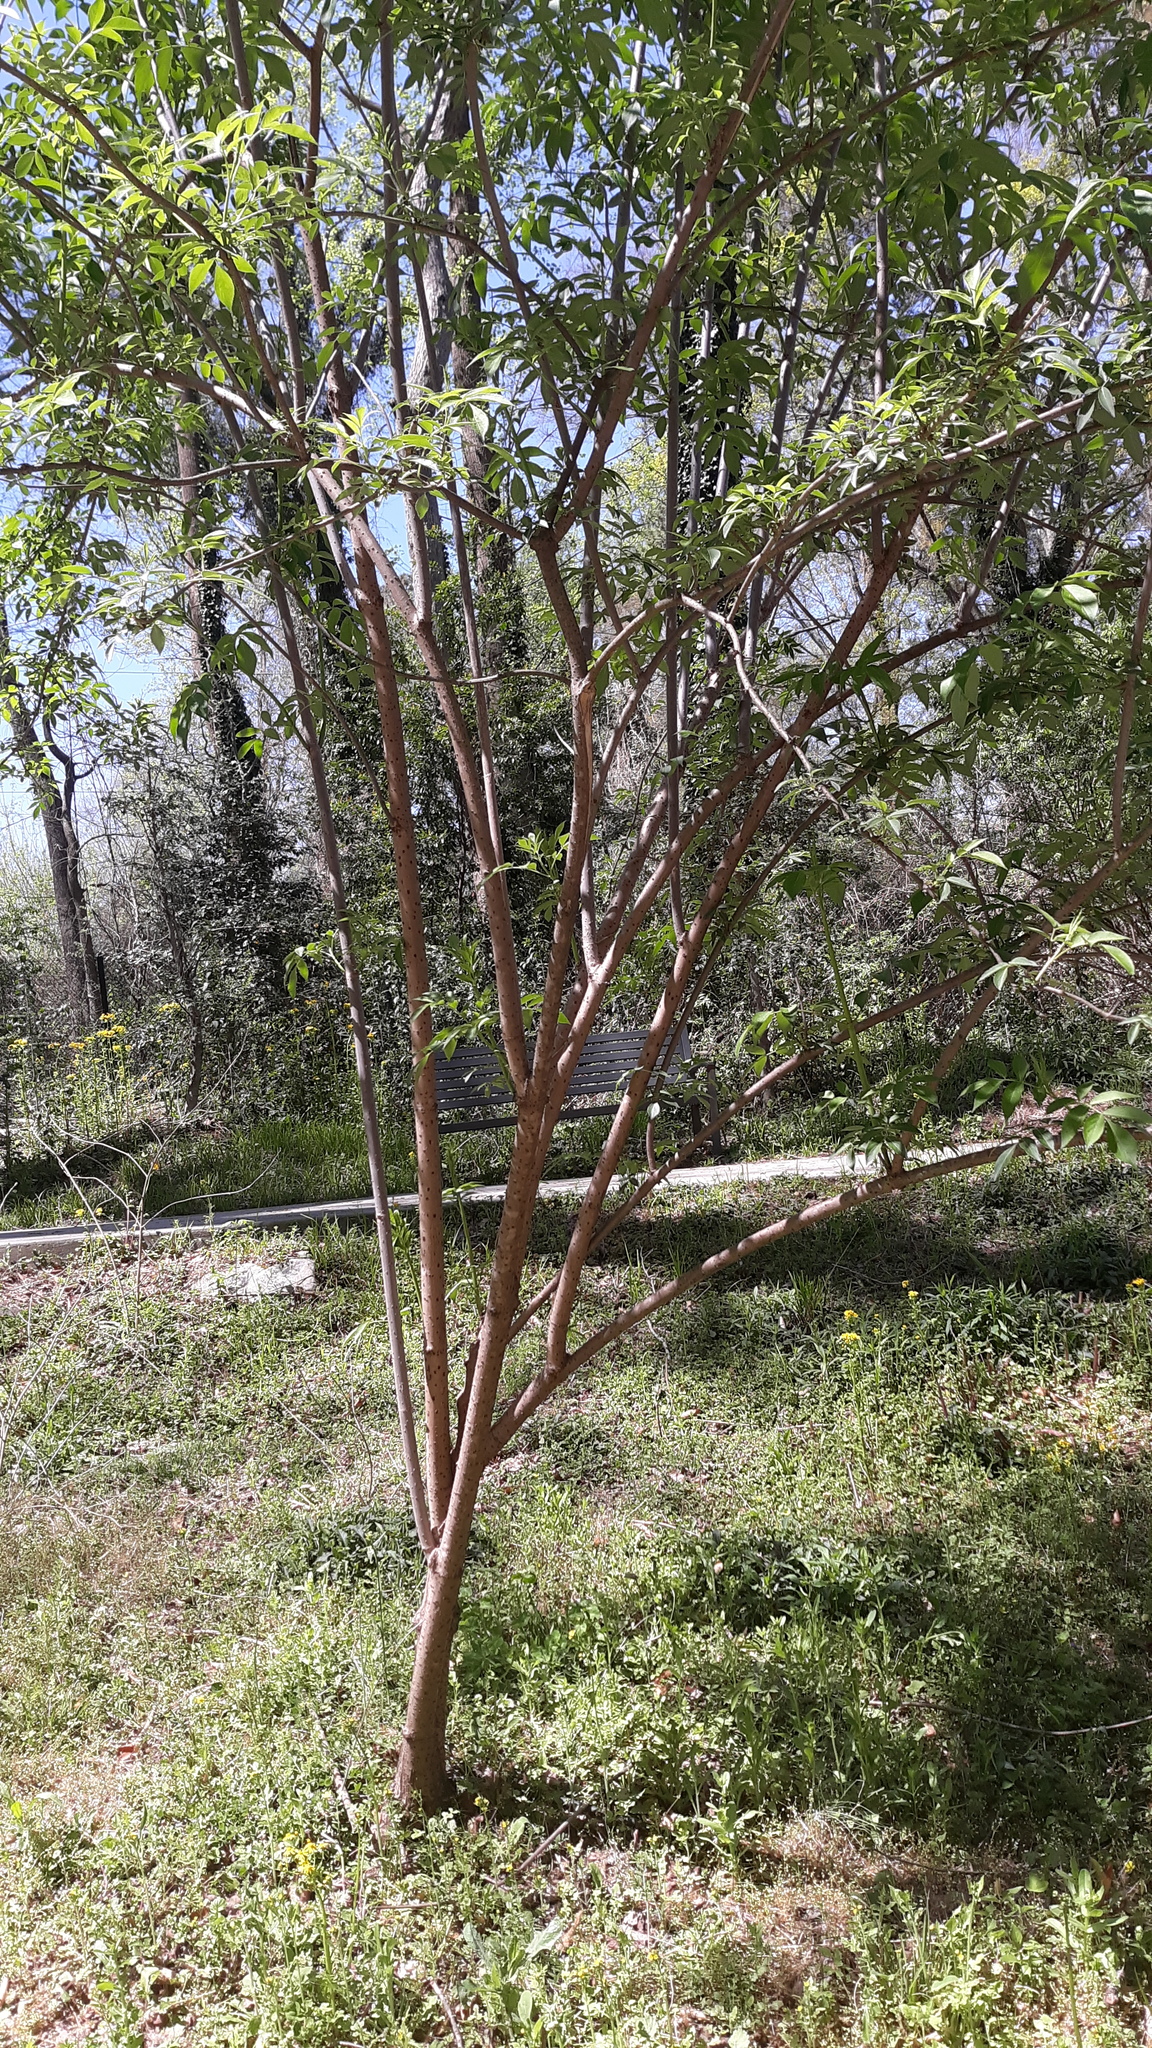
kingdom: Plantae
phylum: Tracheophyta
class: Magnoliopsida
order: Dipsacales
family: Viburnaceae
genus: Sambucus
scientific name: Sambucus canadensis
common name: American elder
